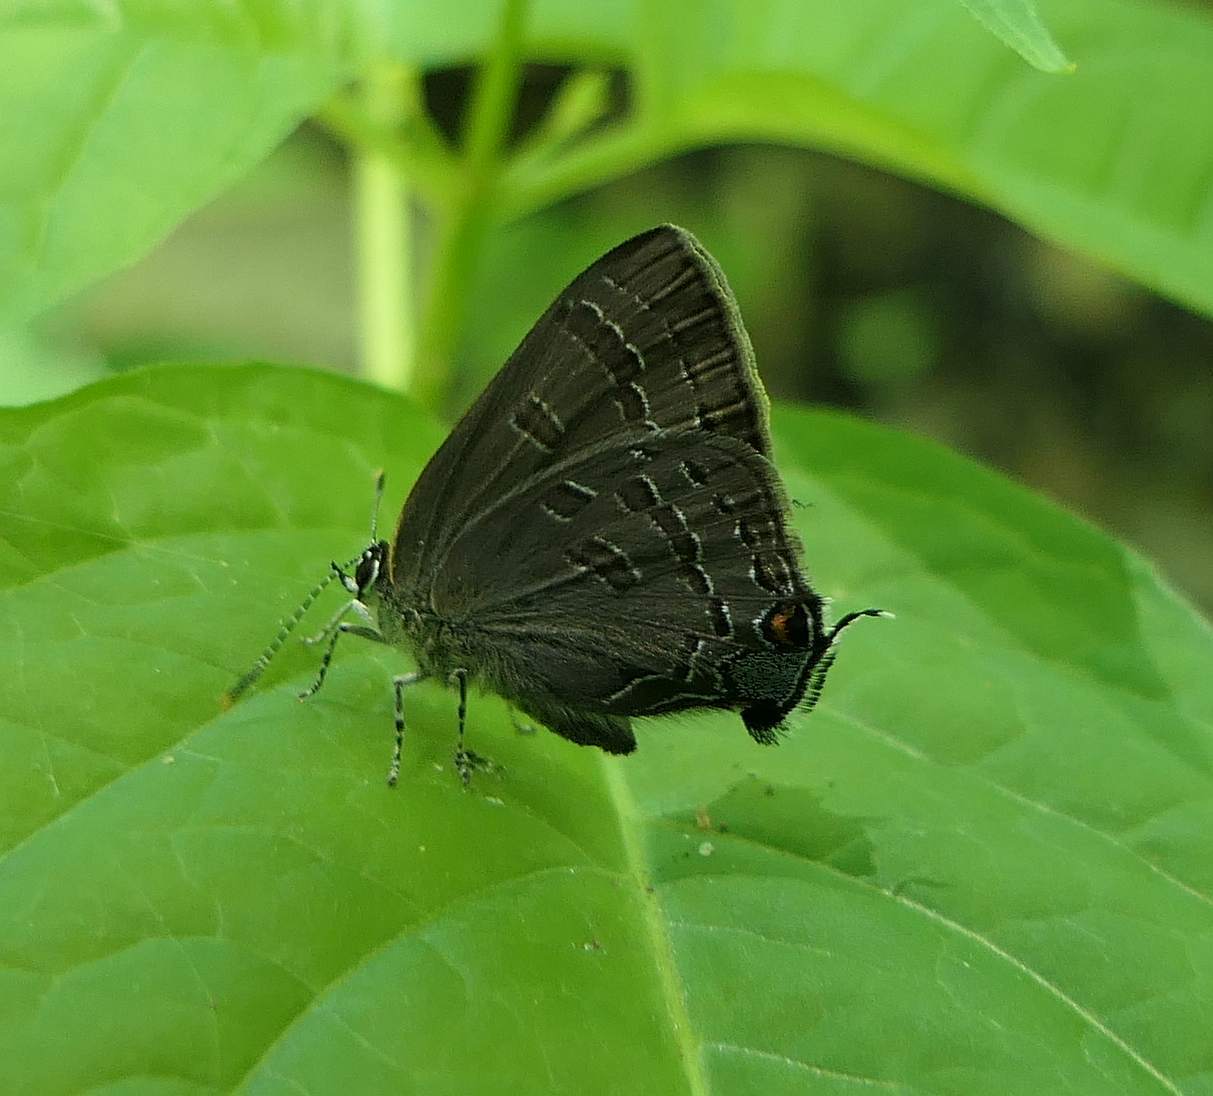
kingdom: Animalia
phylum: Arthropoda
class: Insecta
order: Lepidoptera
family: Lycaenidae
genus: Strymon
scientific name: Strymon caryaevorus
